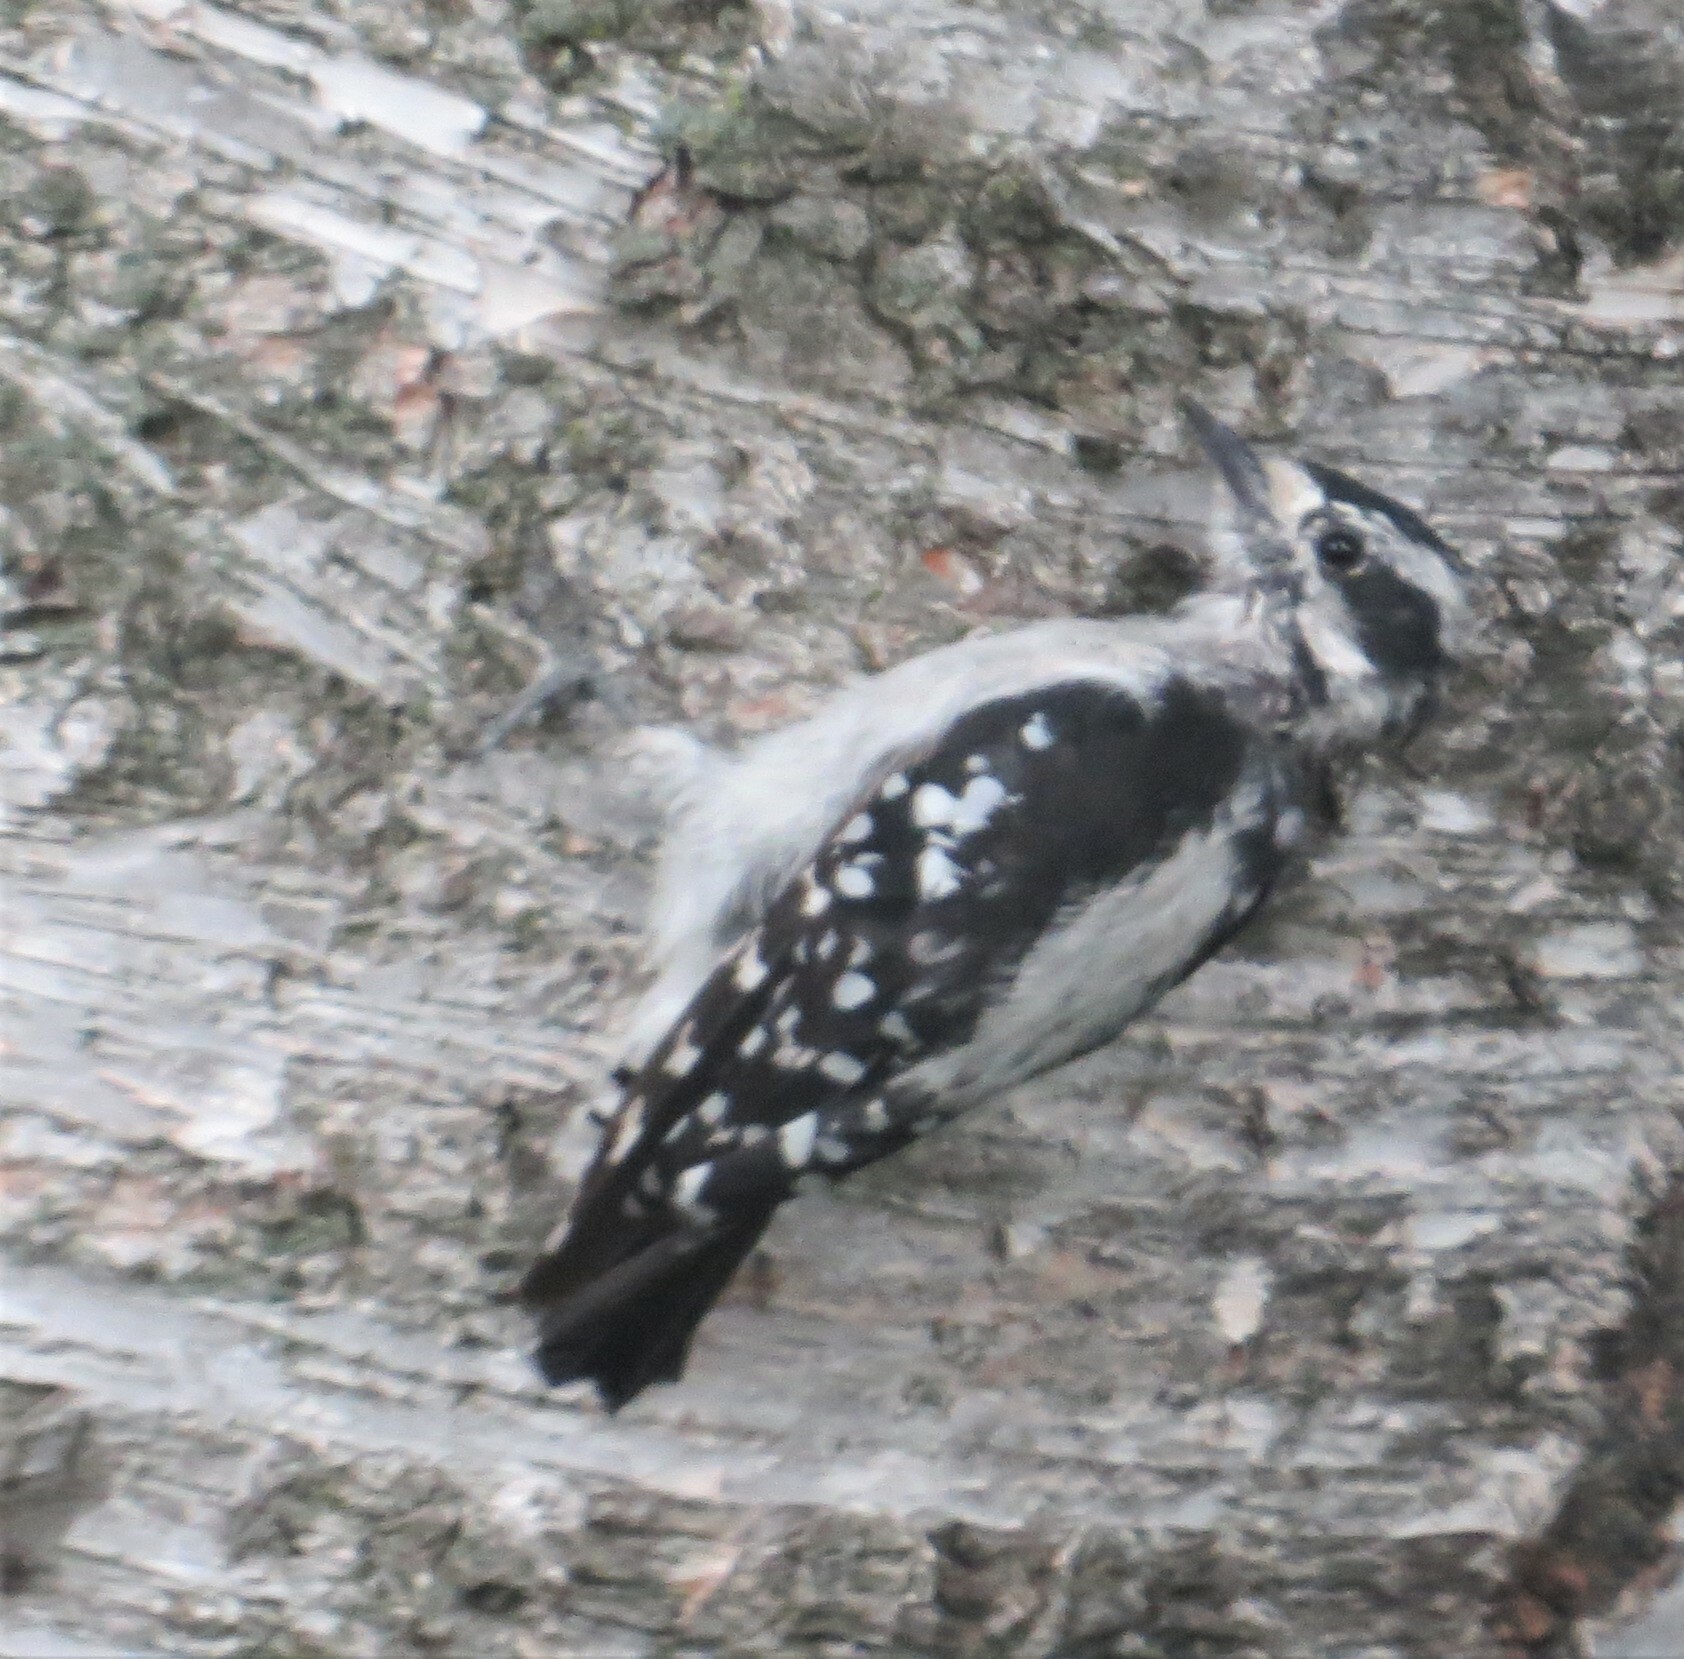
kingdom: Animalia
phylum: Chordata
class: Aves
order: Piciformes
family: Picidae
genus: Dryobates
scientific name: Dryobates pubescens
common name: Downy woodpecker
